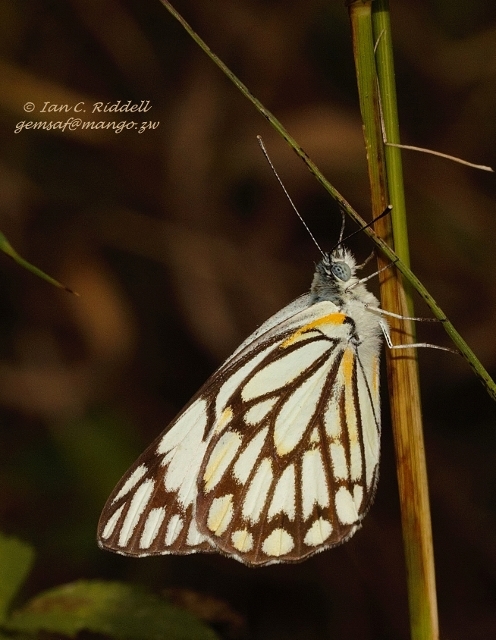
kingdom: Animalia
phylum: Arthropoda
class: Insecta
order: Lepidoptera
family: Pieridae
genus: Belenois
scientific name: Belenois aurota
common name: Brown-veined white
